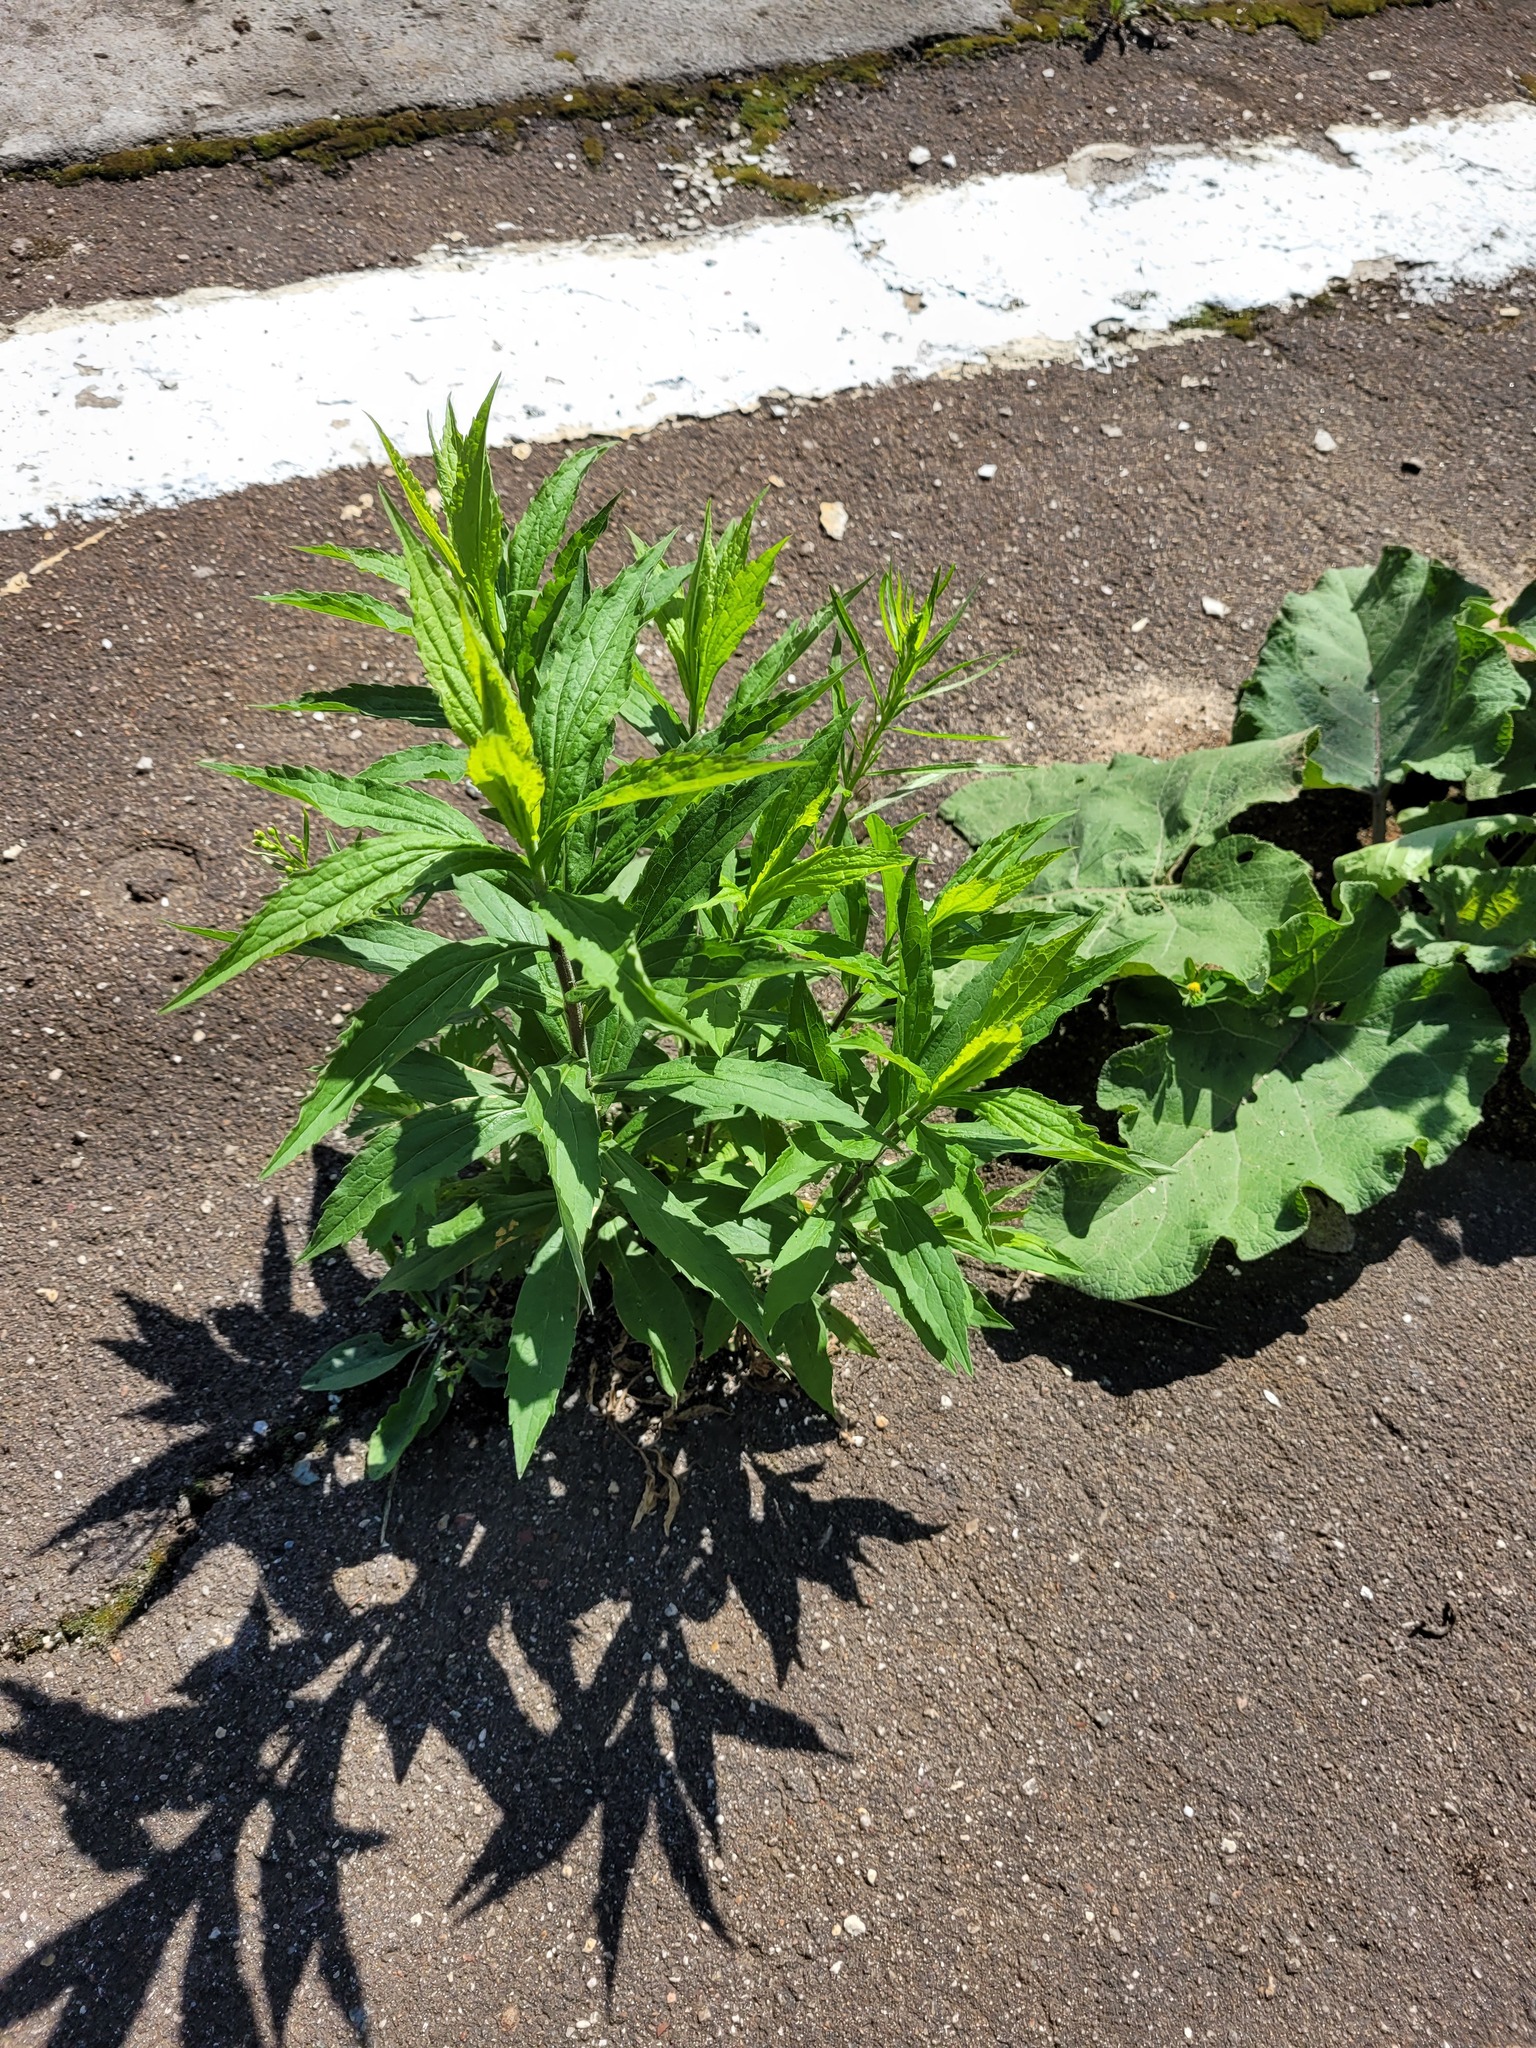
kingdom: Plantae
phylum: Tracheophyta
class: Magnoliopsida
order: Asterales
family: Asteraceae
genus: Solidago
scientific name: Solidago canadensis
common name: Canada goldenrod
